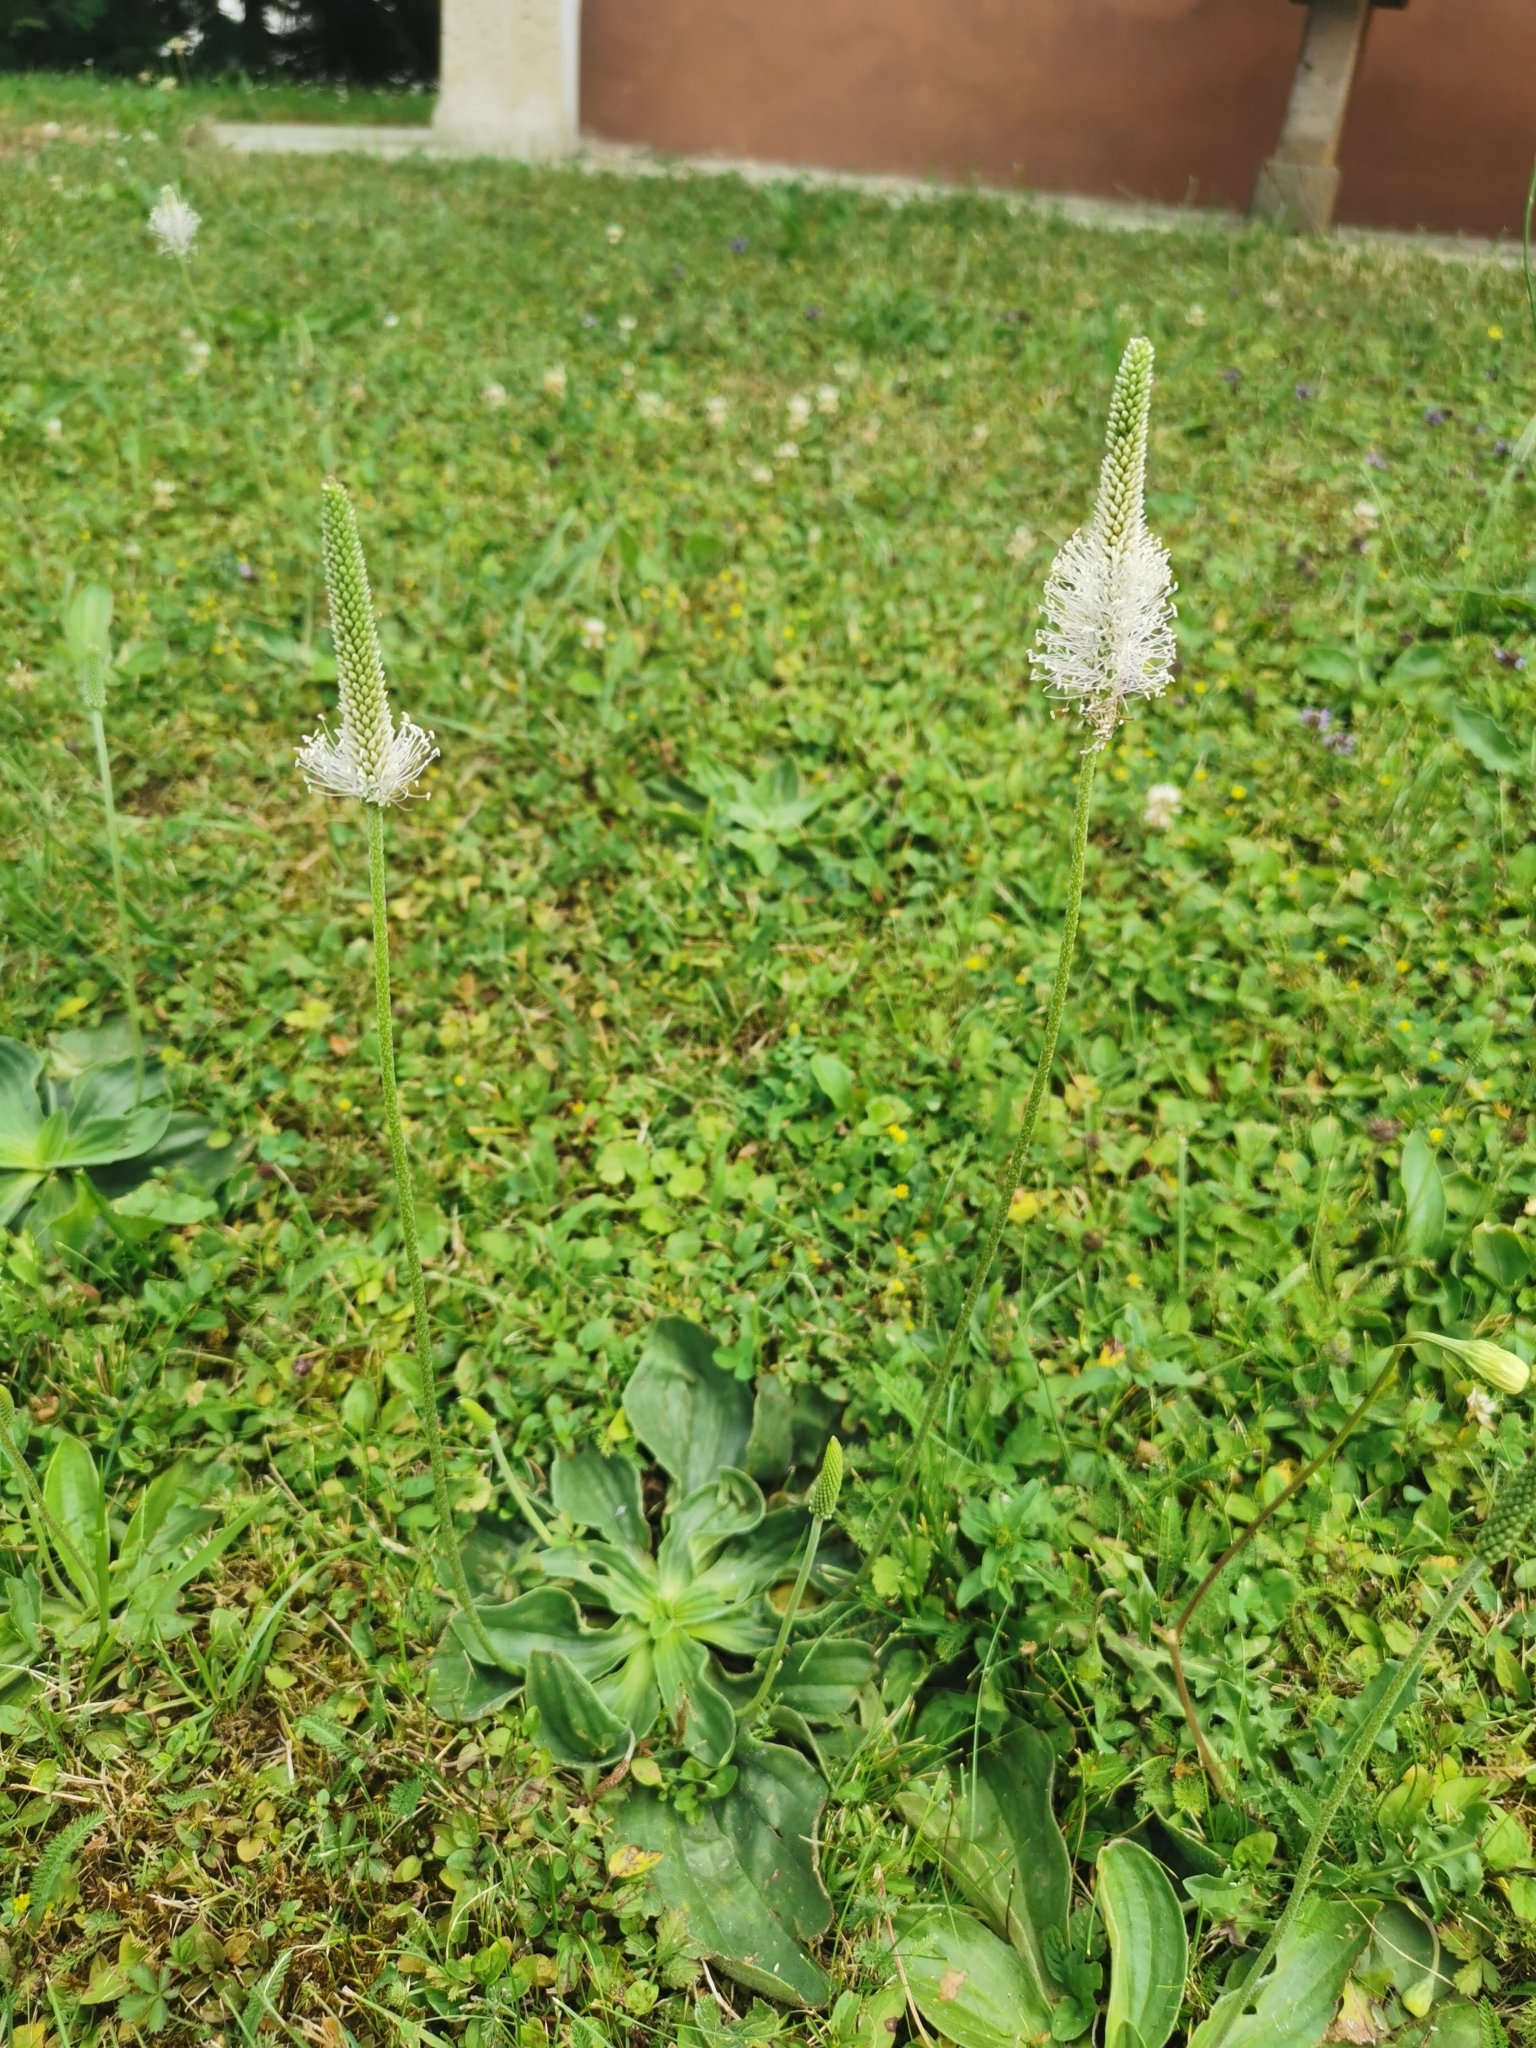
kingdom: Plantae
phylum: Tracheophyta
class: Magnoliopsida
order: Lamiales
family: Plantaginaceae
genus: Plantago
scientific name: Plantago media
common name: Hoary plantain
